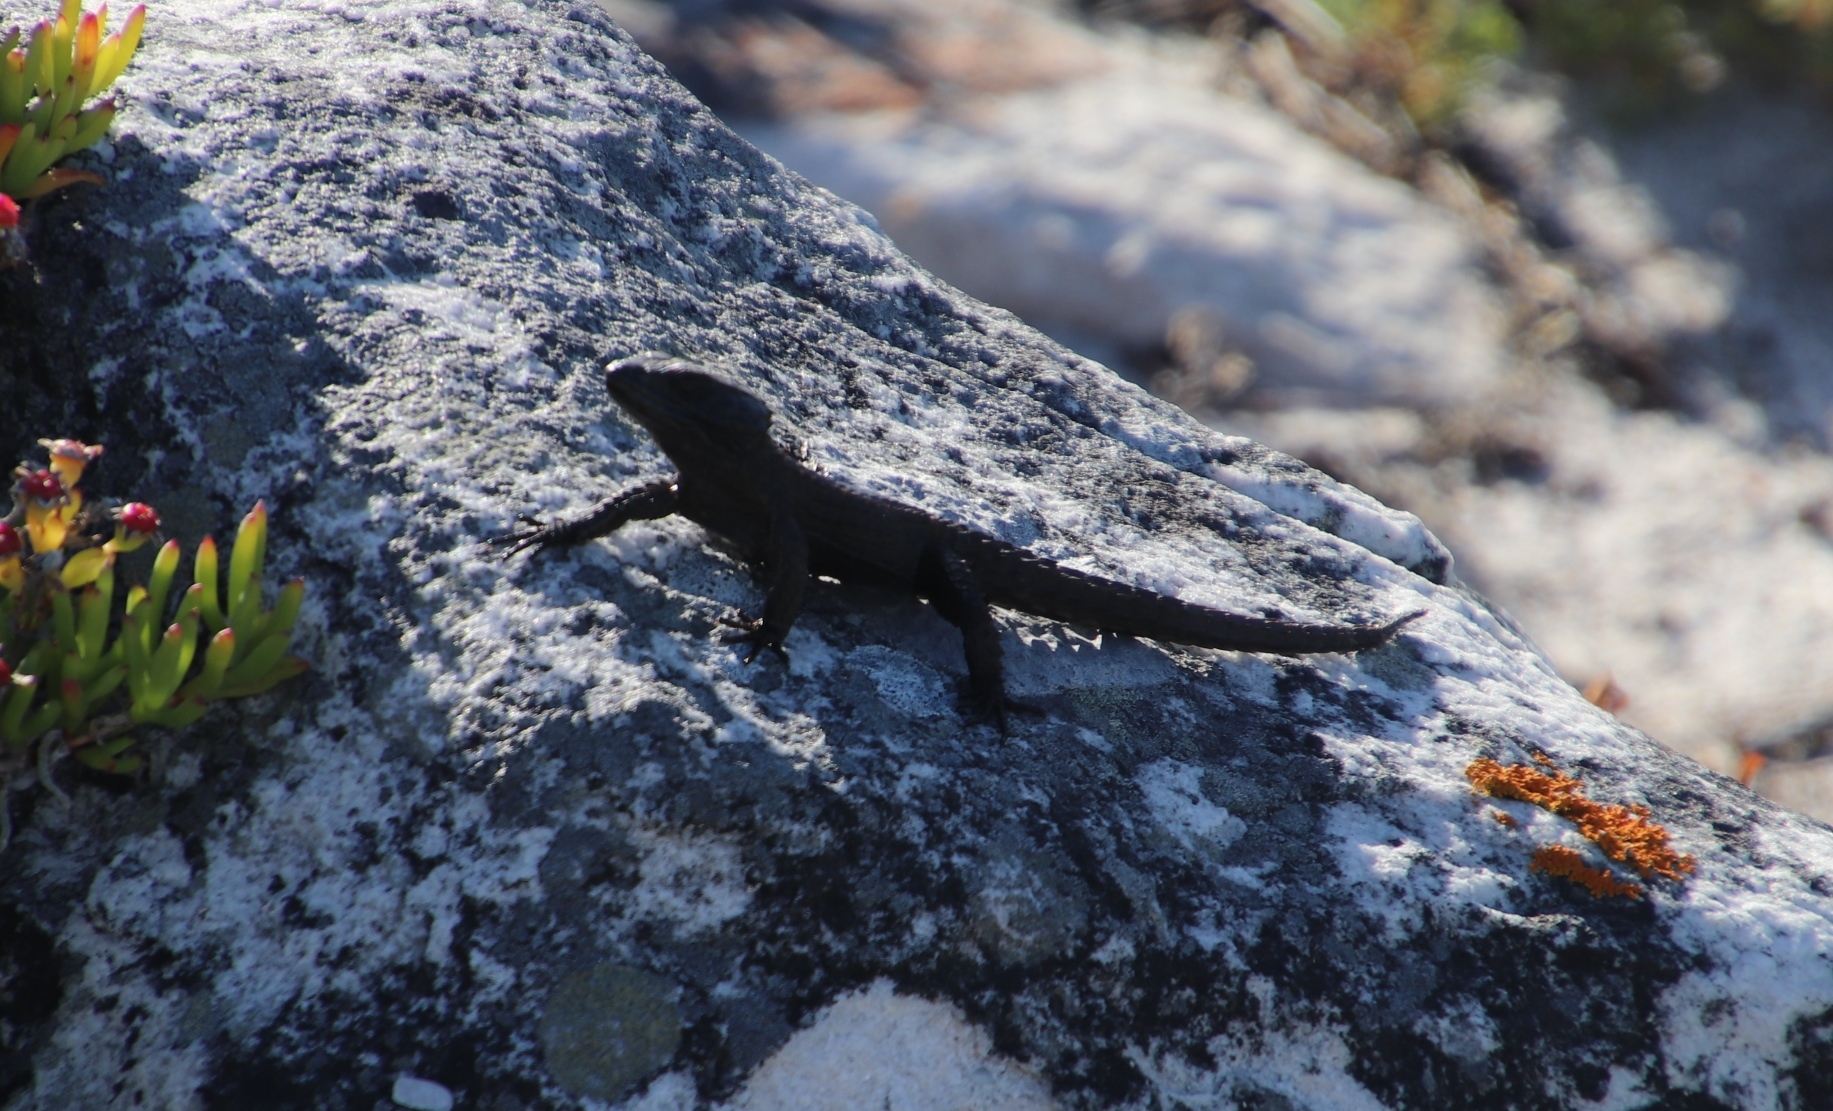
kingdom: Animalia
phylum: Chordata
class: Squamata
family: Cordylidae
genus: Cordylus
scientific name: Cordylus niger
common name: Black girdled lizard
